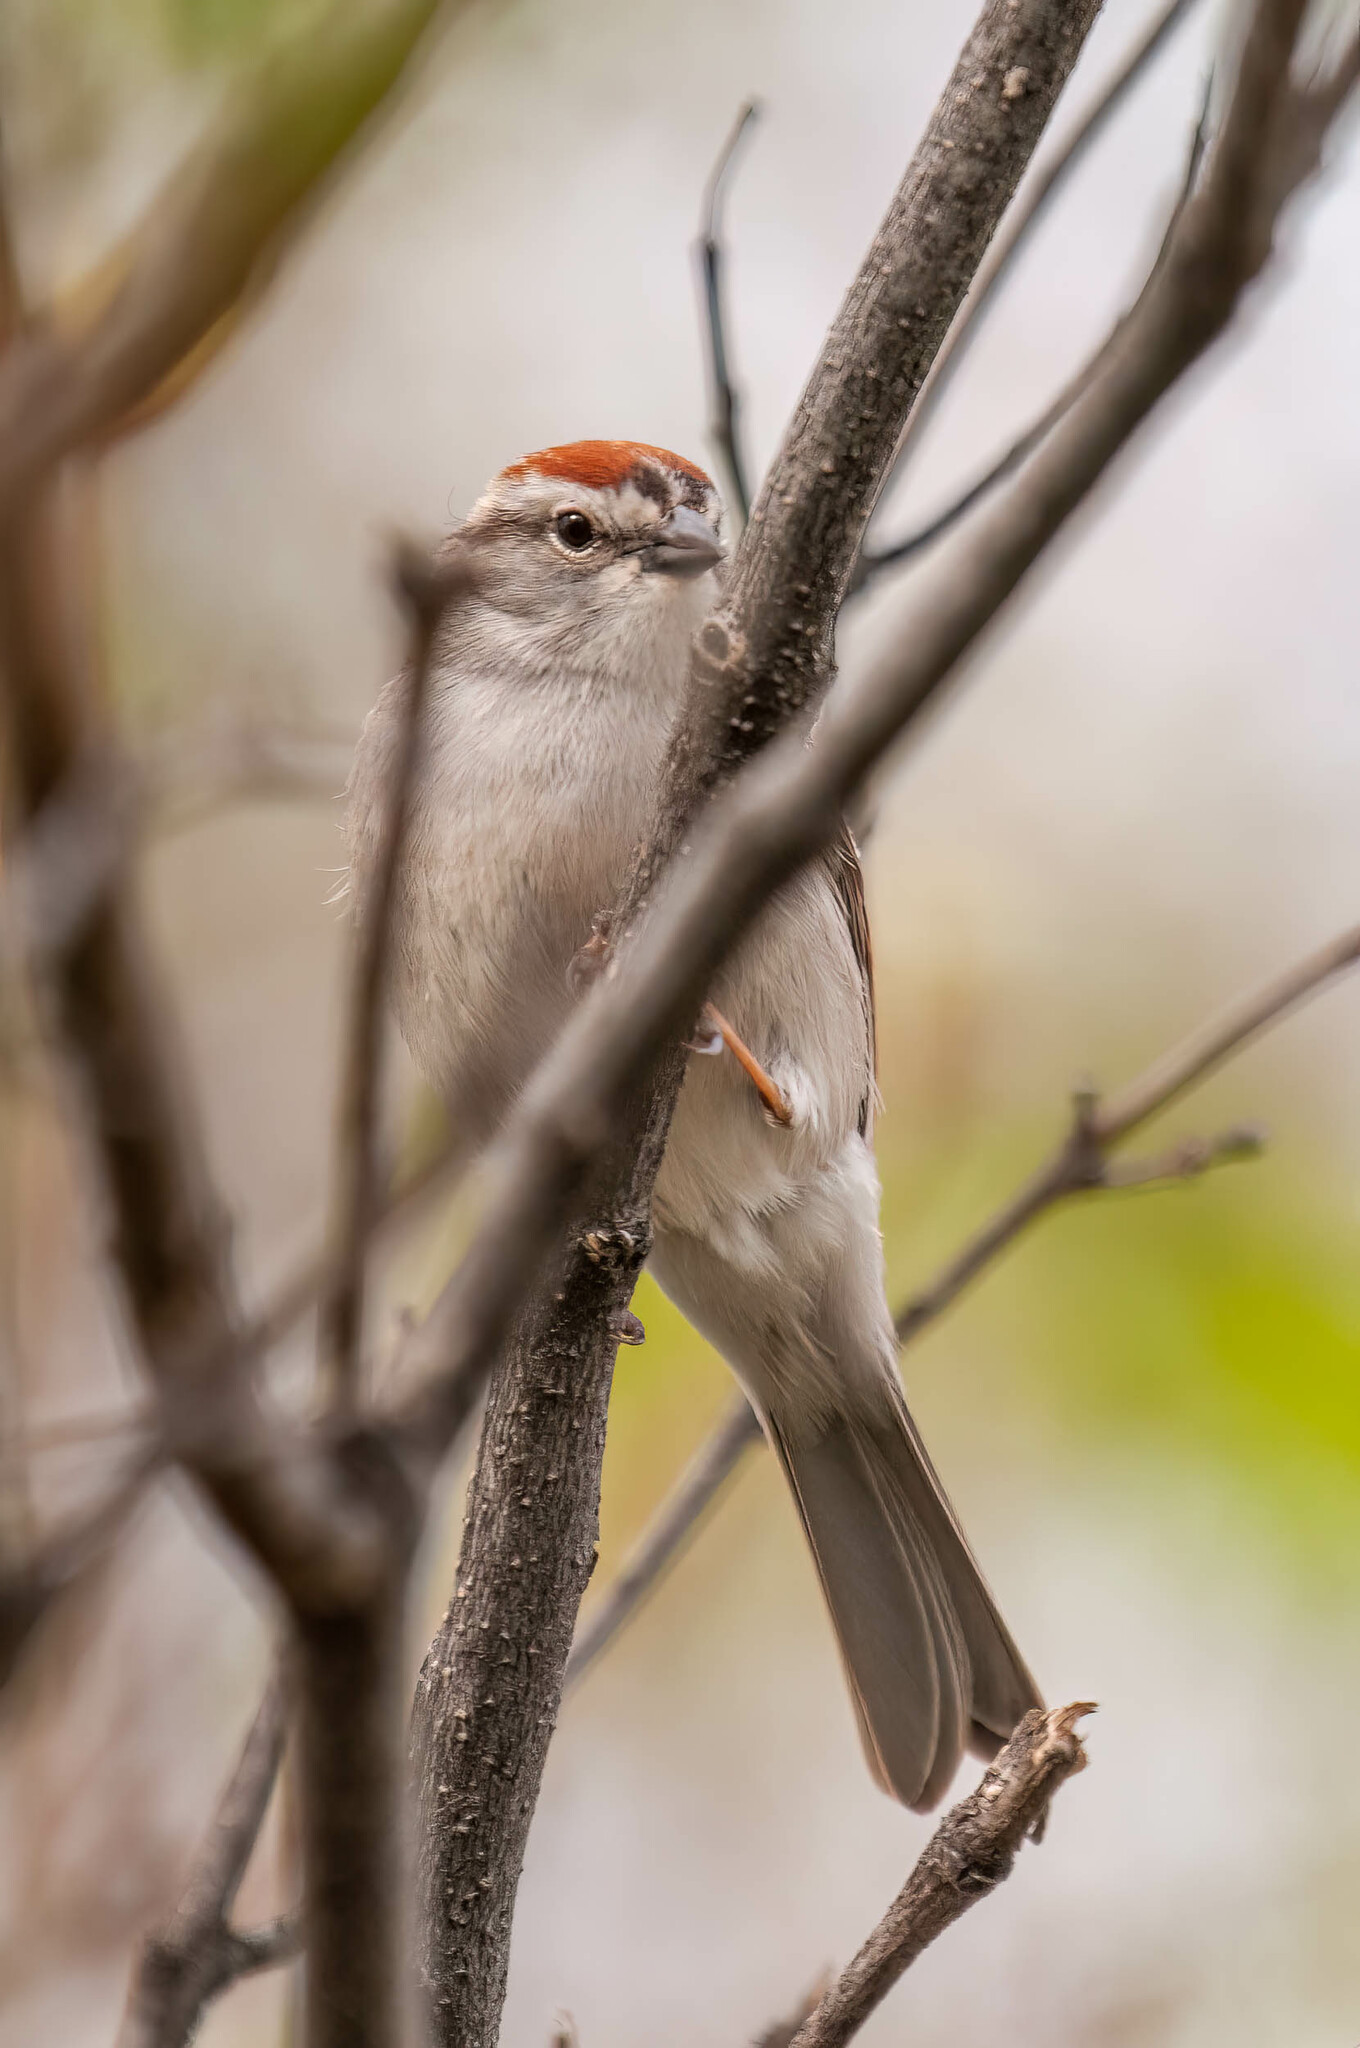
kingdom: Animalia
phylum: Chordata
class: Aves
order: Passeriformes
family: Passerellidae
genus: Spizella
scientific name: Spizella passerina
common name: Chipping sparrow
